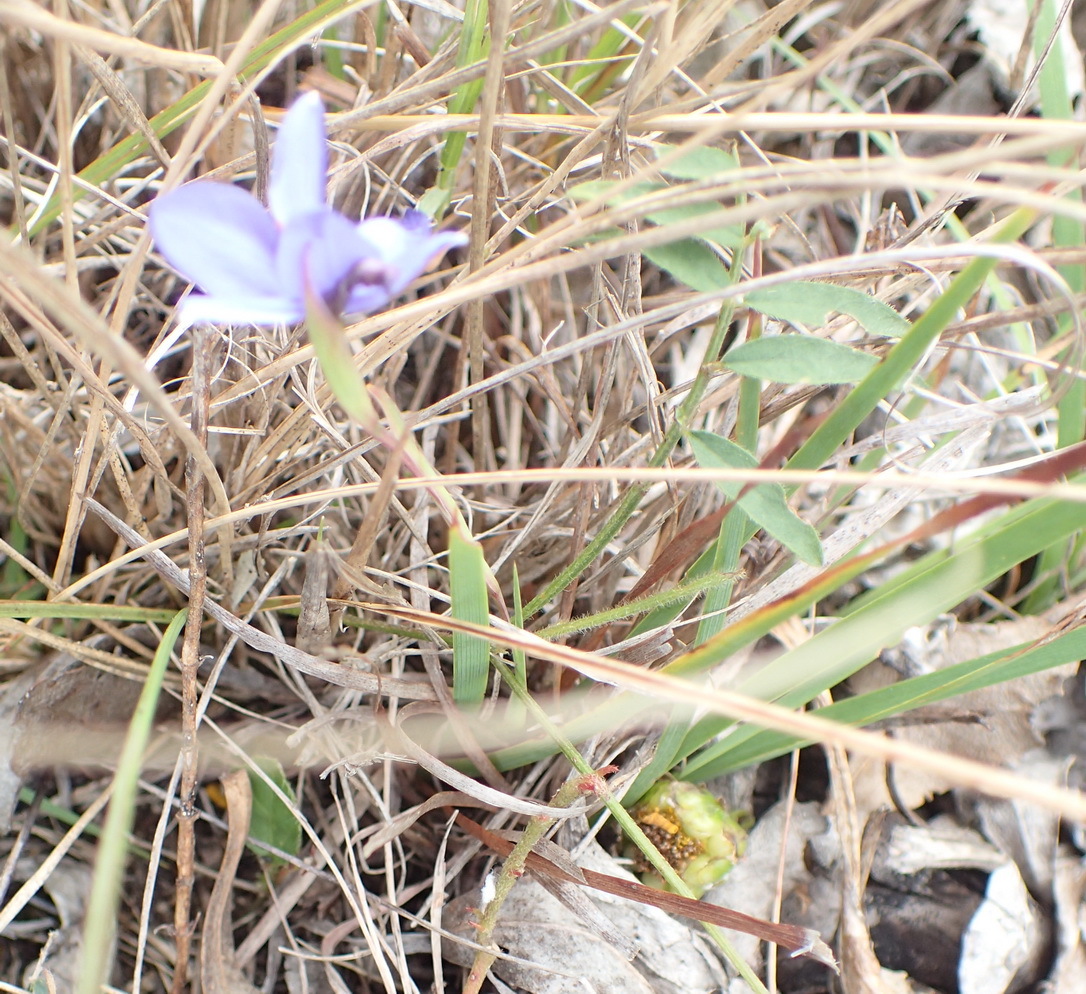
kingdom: Plantae
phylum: Tracheophyta
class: Liliopsida
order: Asparagales
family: Iridaceae
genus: Aristea
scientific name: Aristea pusilla
